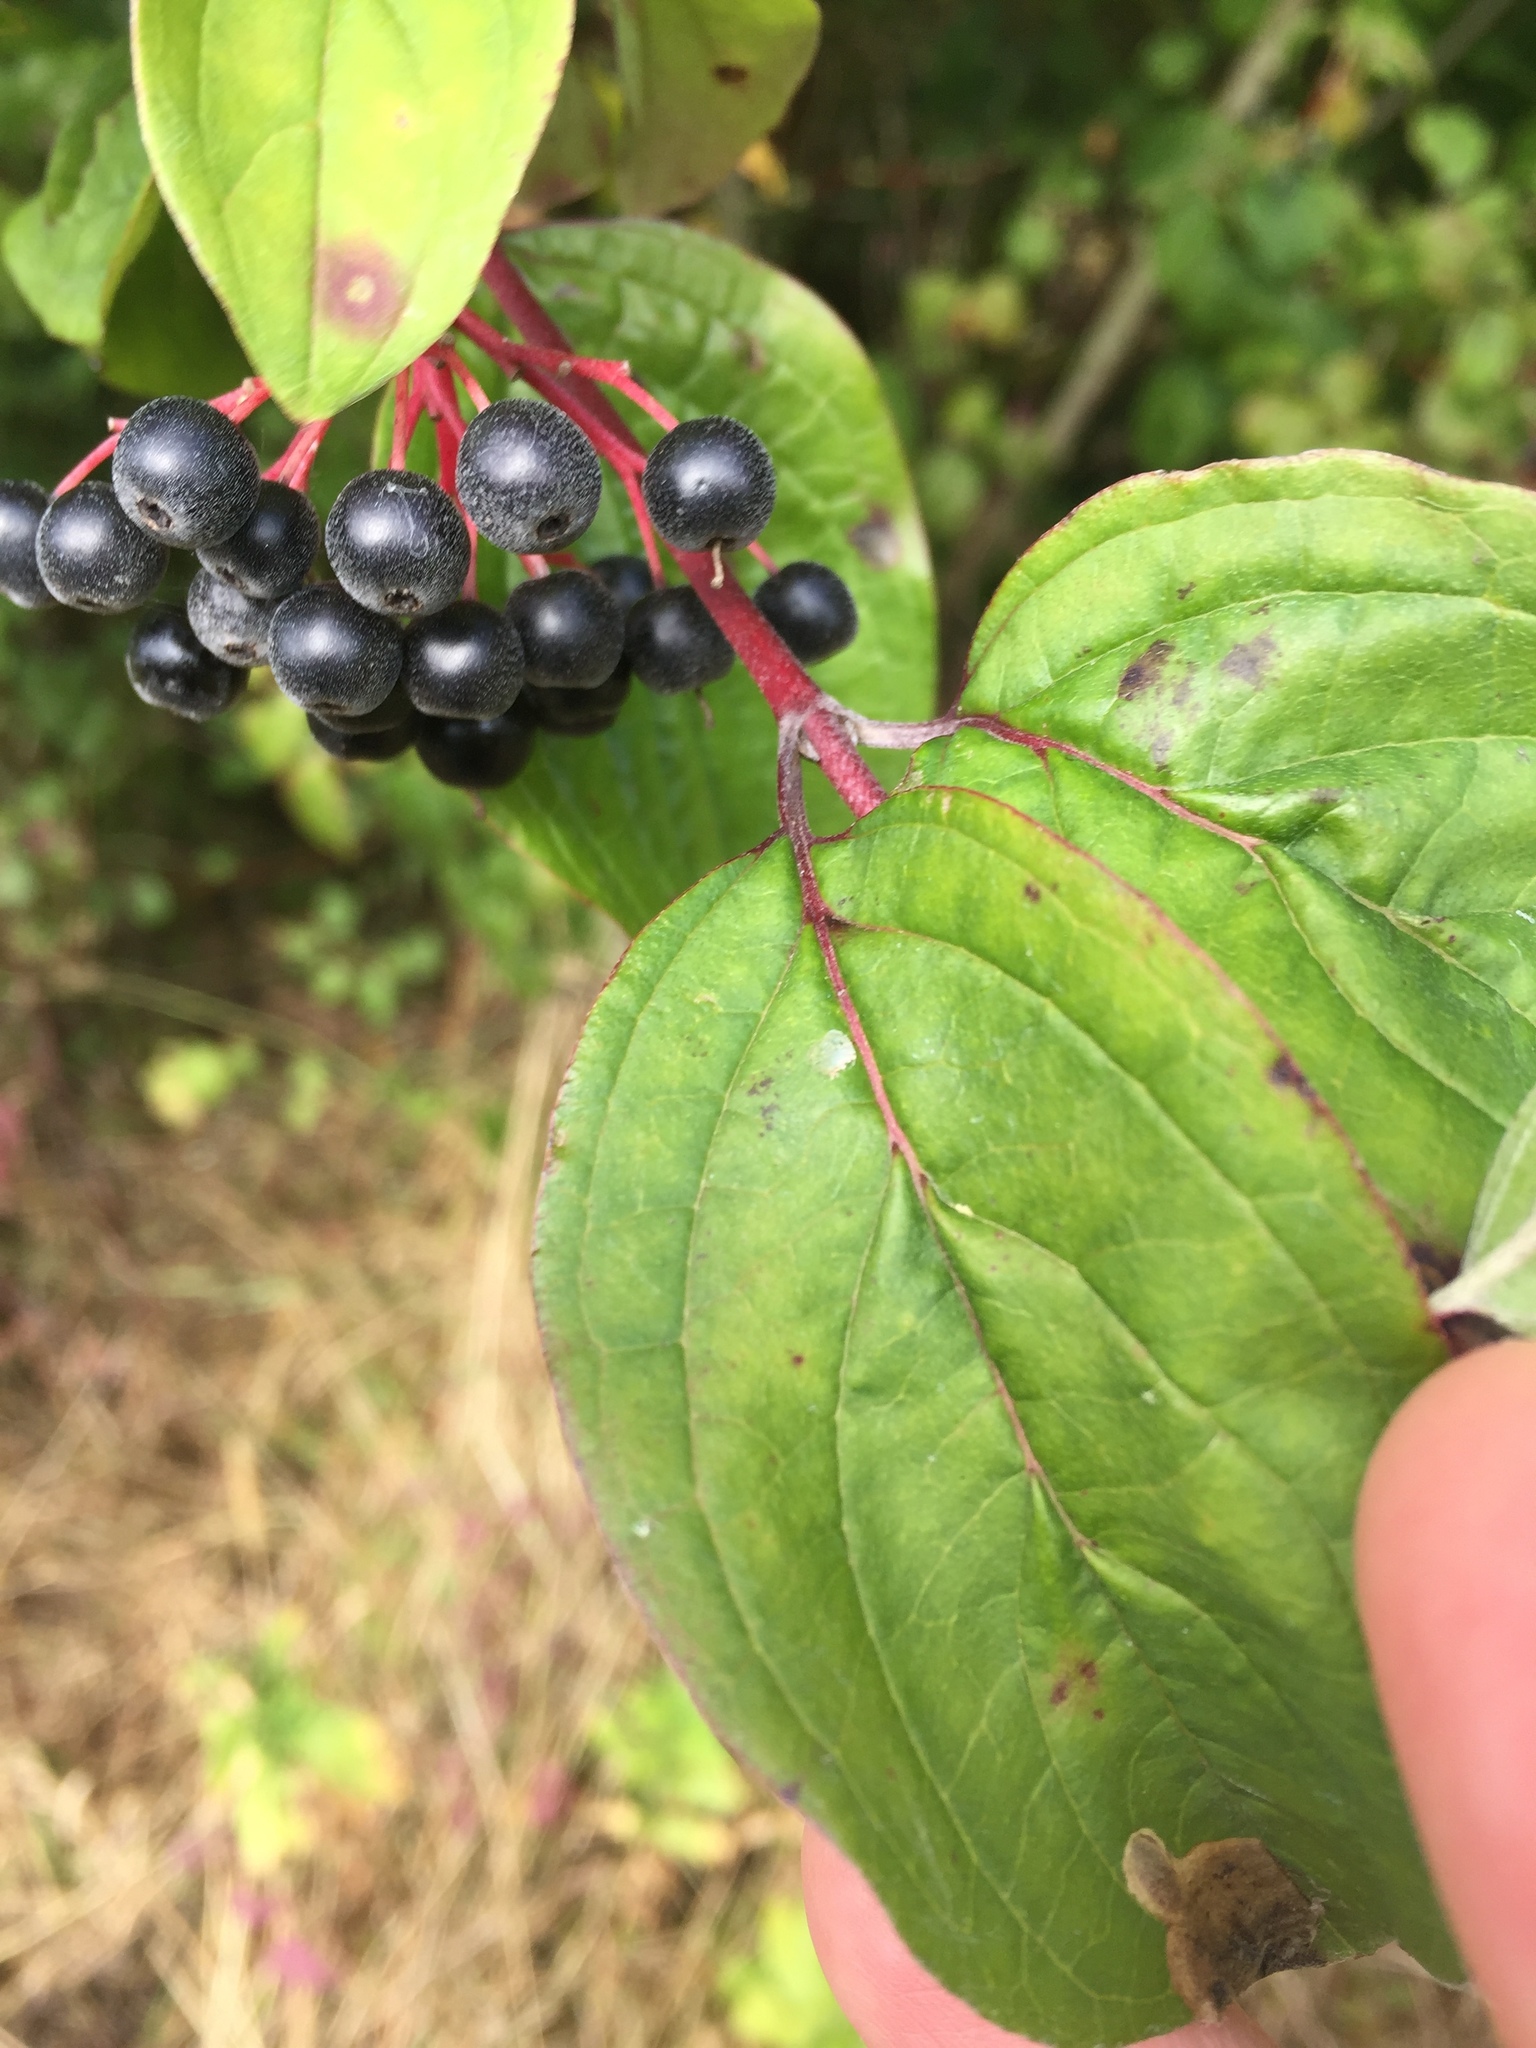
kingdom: Plantae
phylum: Tracheophyta
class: Magnoliopsida
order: Cornales
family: Cornaceae
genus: Cornus
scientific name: Cornus sanguinea
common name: Dogwood
